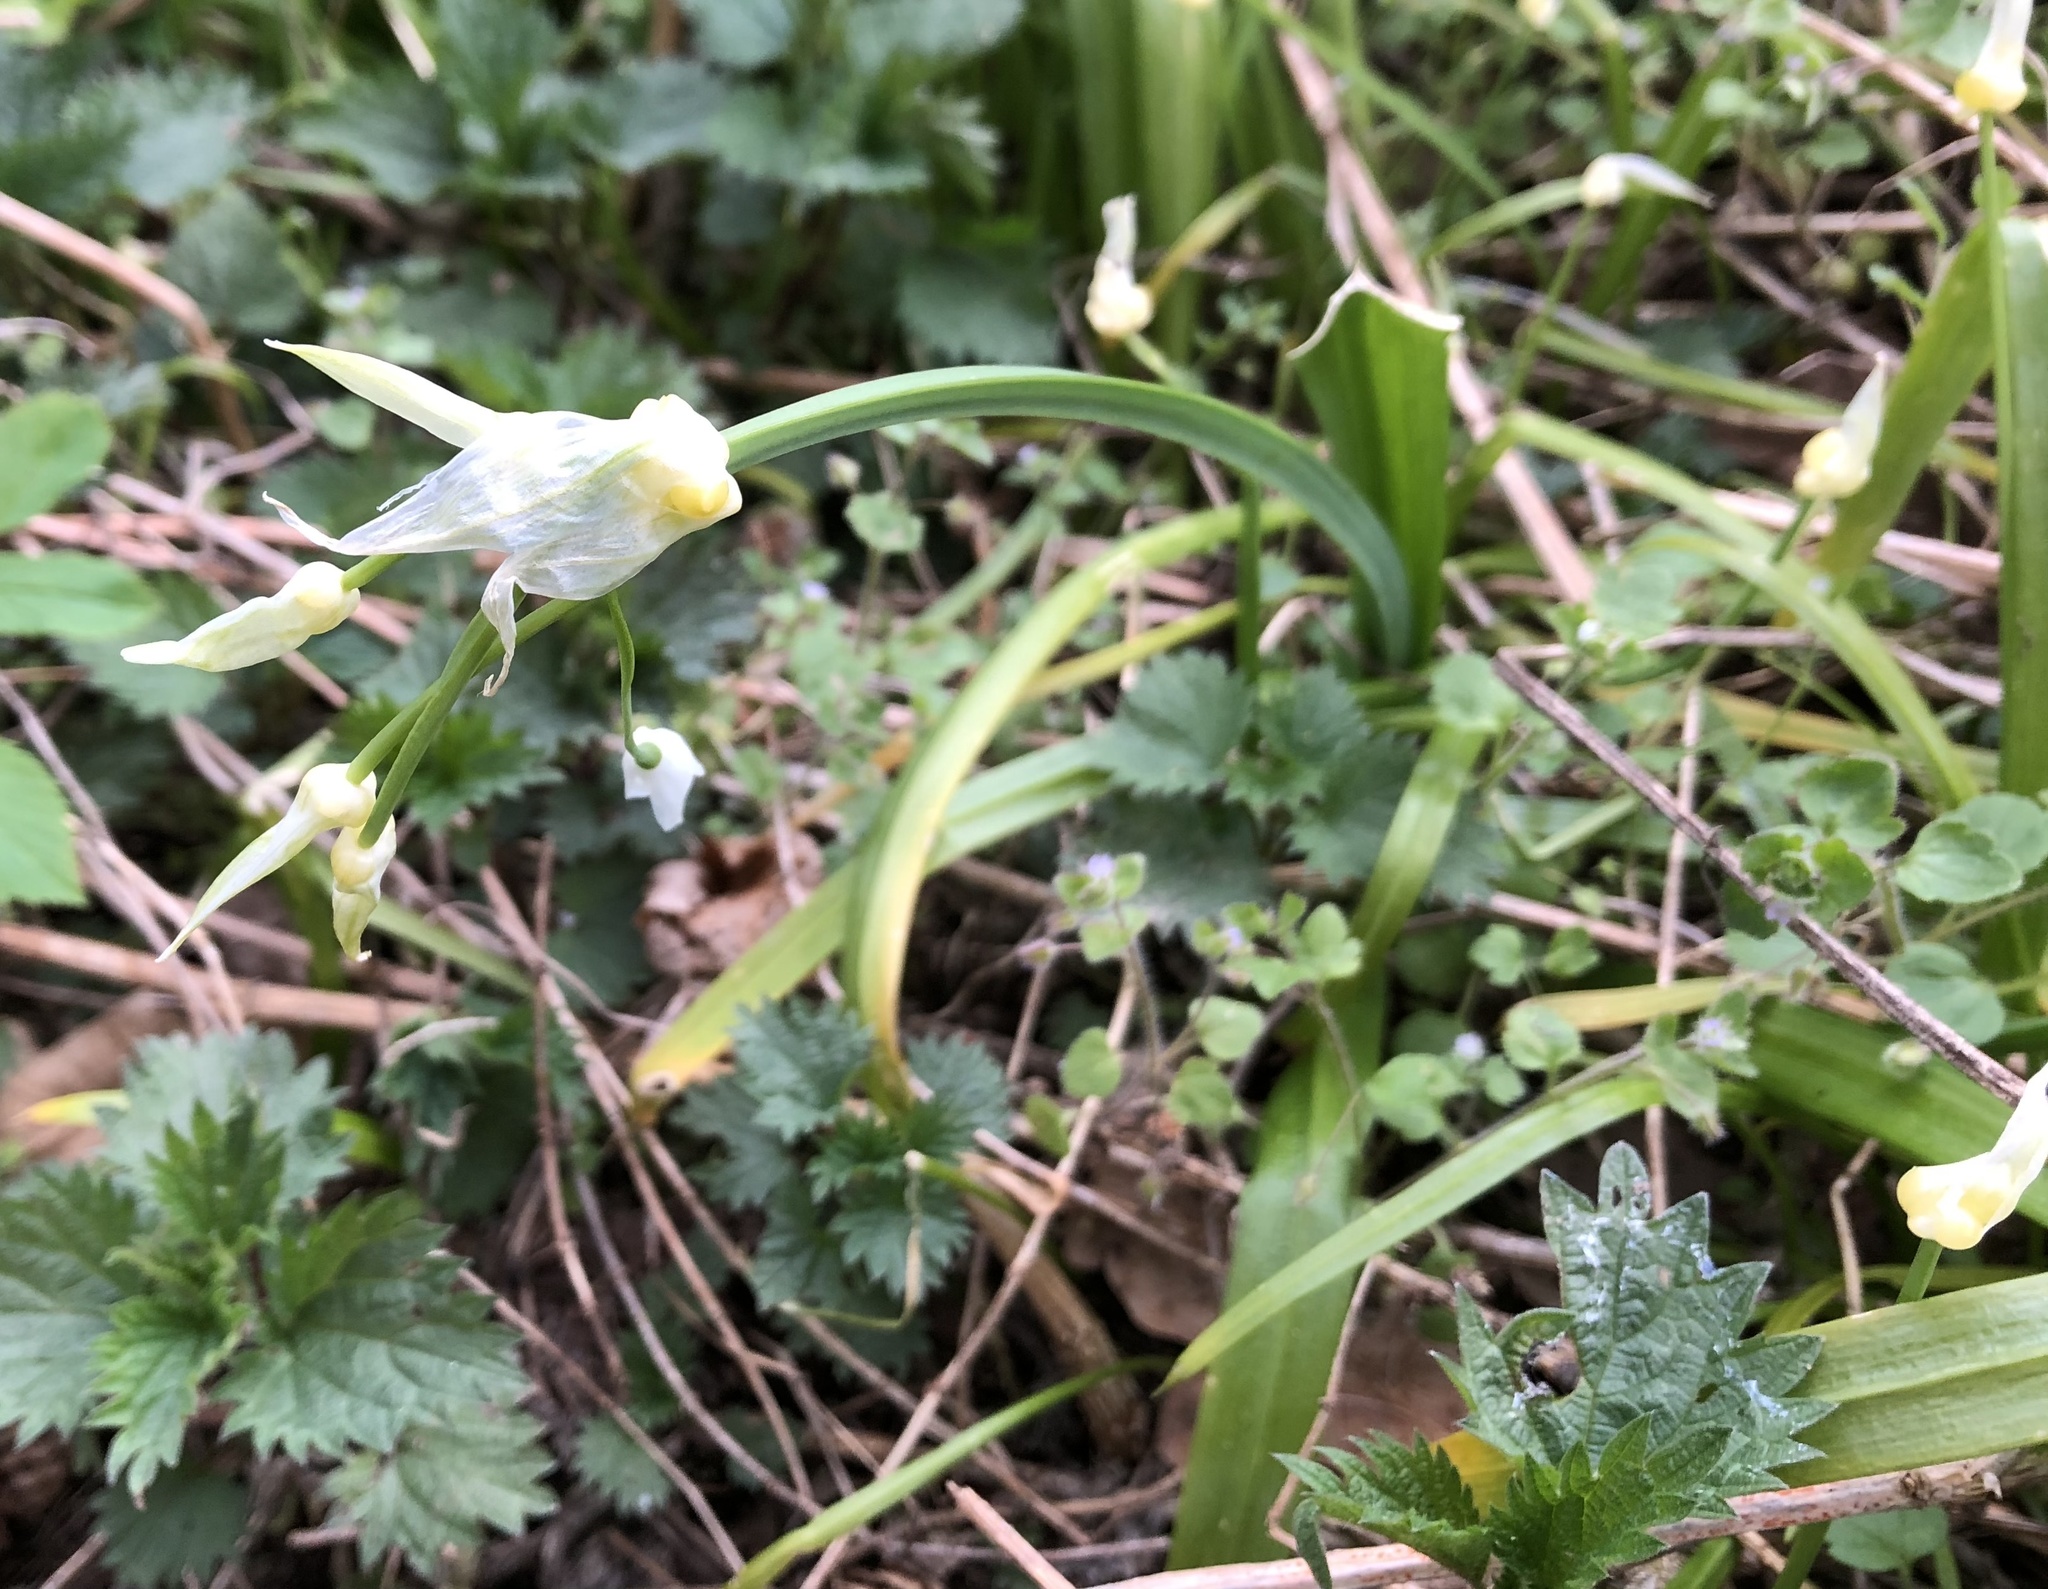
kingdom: Plantae
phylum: Tracheophyta
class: Liliopsida
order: Asparagales
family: Amaryllidaceae
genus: Allium
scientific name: Allium paradoxum
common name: Few-flowered garlic
